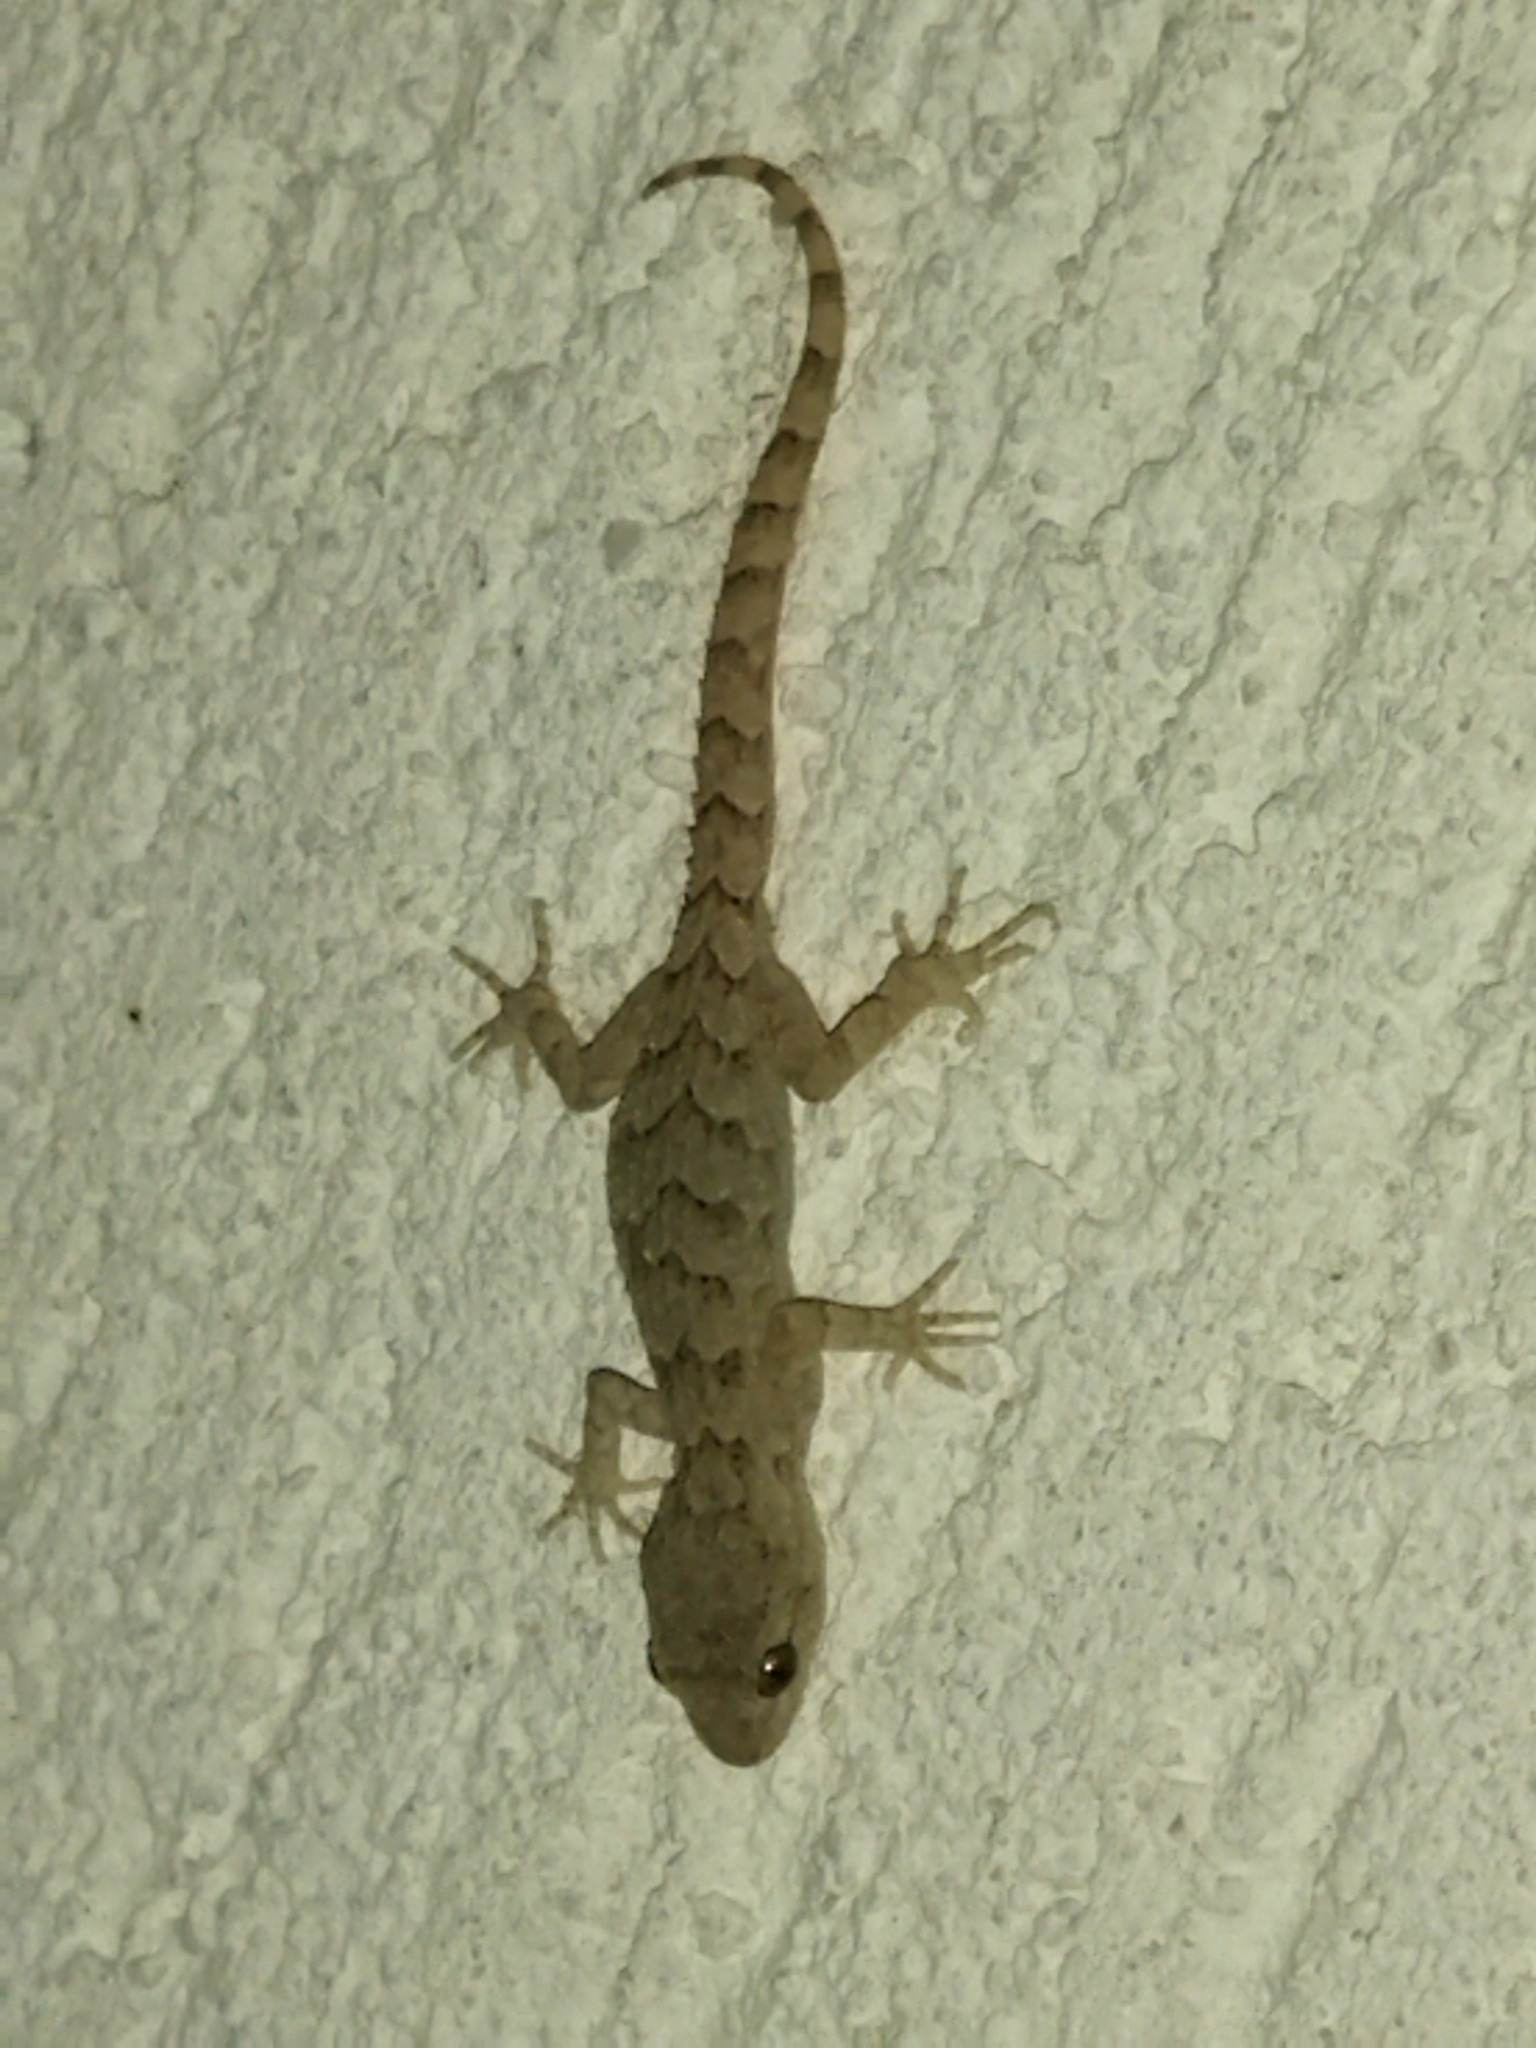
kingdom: Animalia
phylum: Chordata
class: Squamata
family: Gekkonidae
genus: Mediodactylus
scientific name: Mediodactylus kotschyi
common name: Kotschy's gecko
